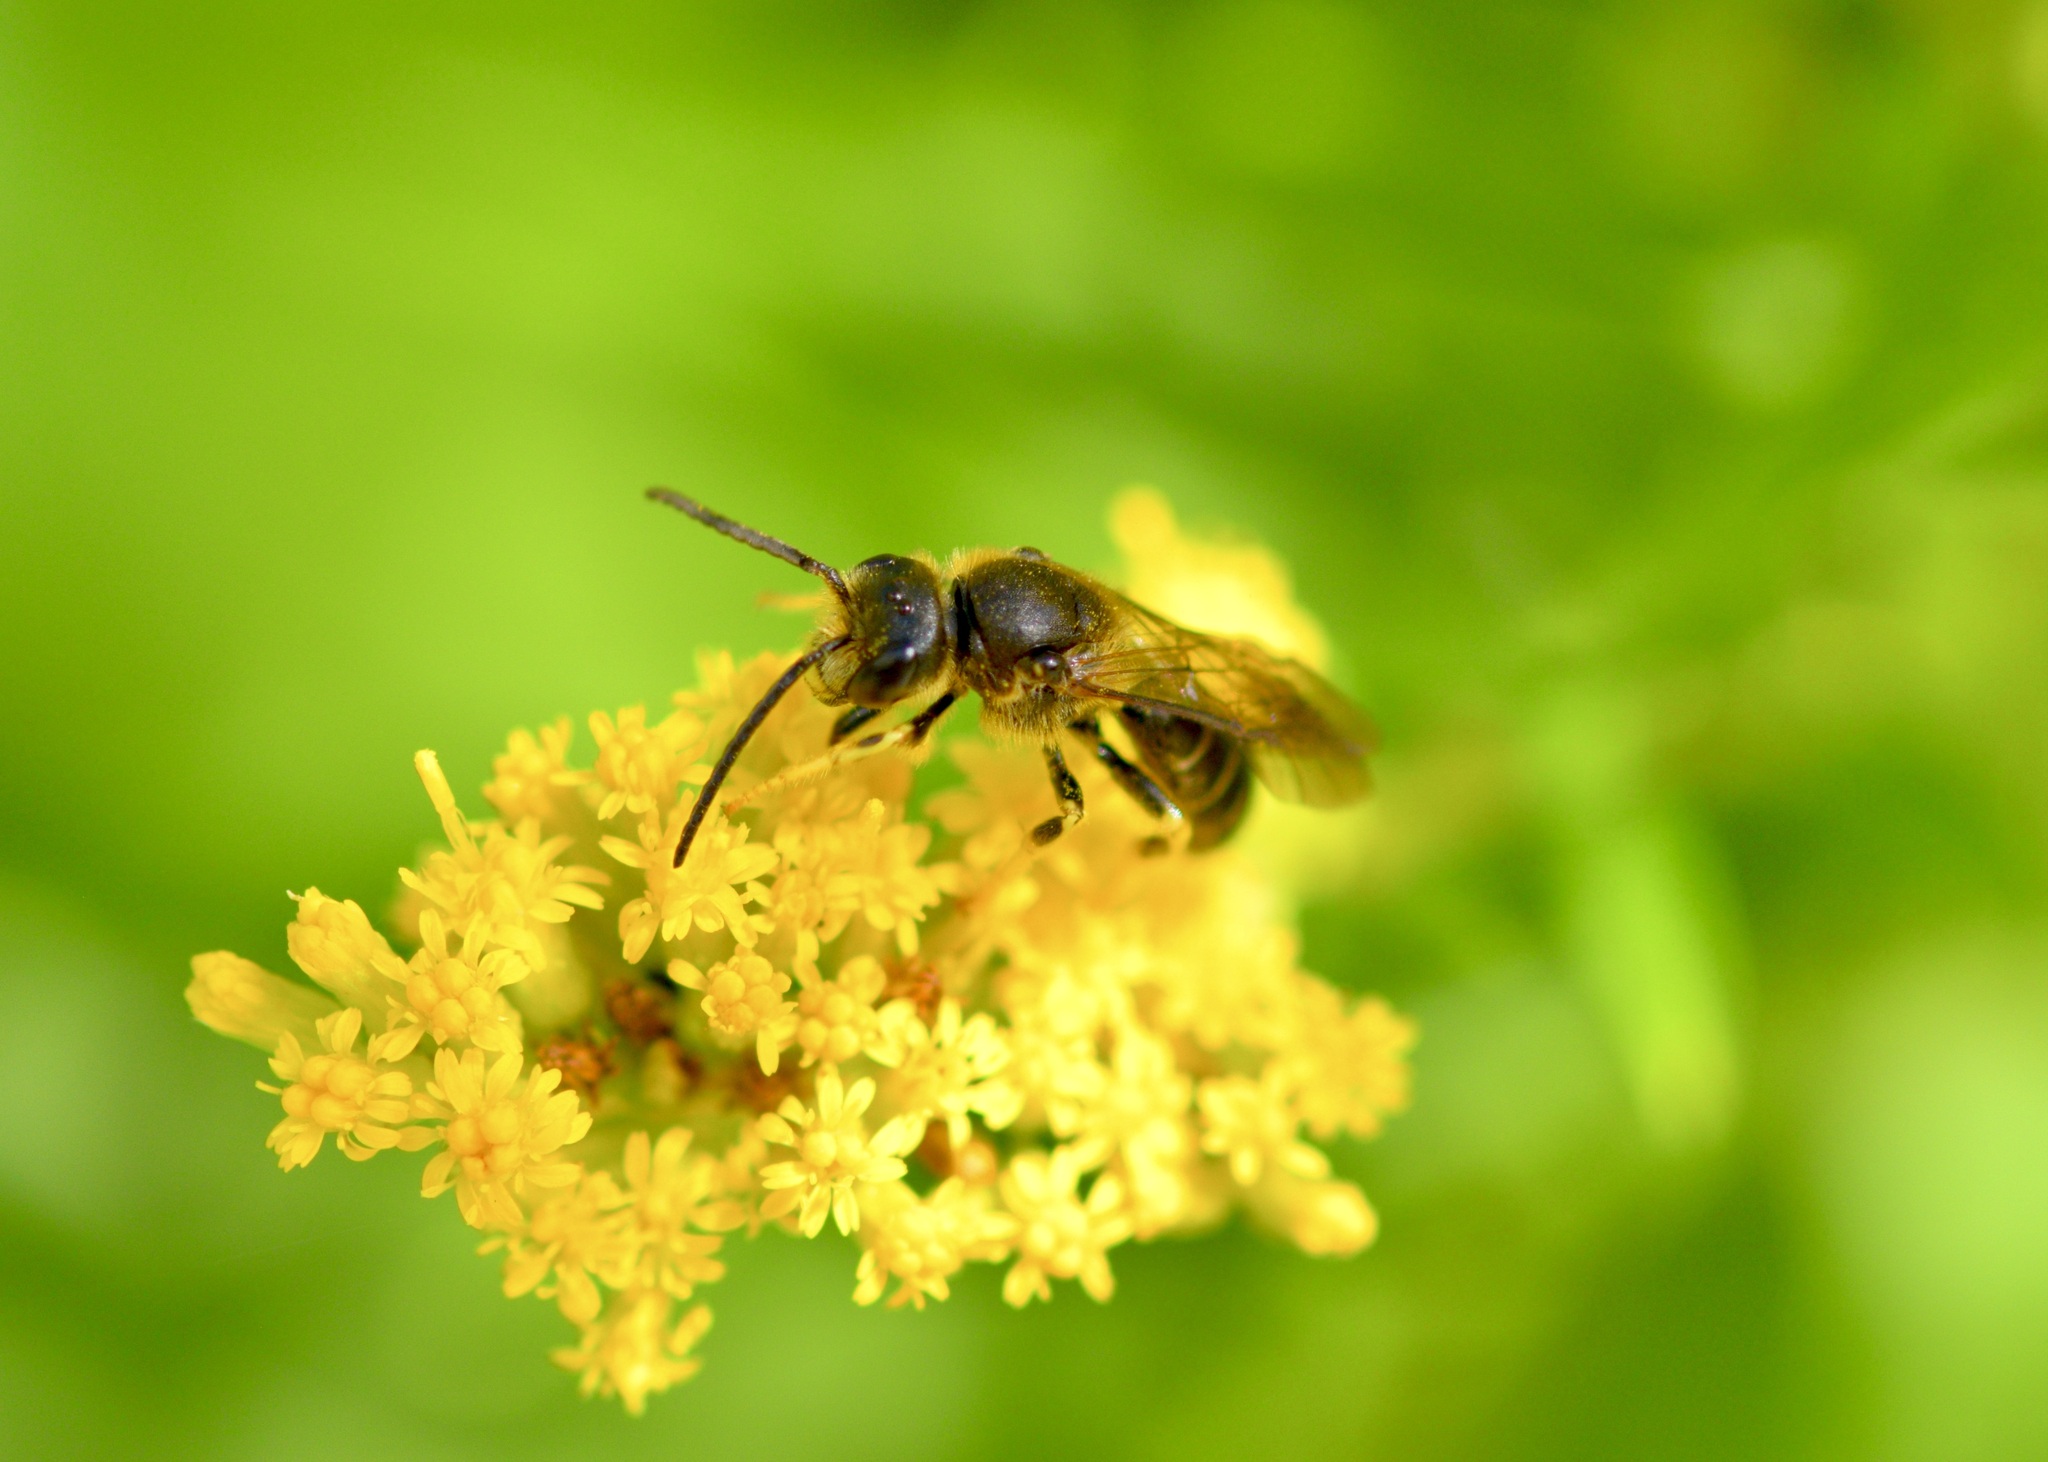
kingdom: Animalia
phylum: Arthropoda
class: Insecta
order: Hymenoptera
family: Halictidae
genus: Halictus
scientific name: Halictus rubicundus
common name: Orange-legged furrow bee
